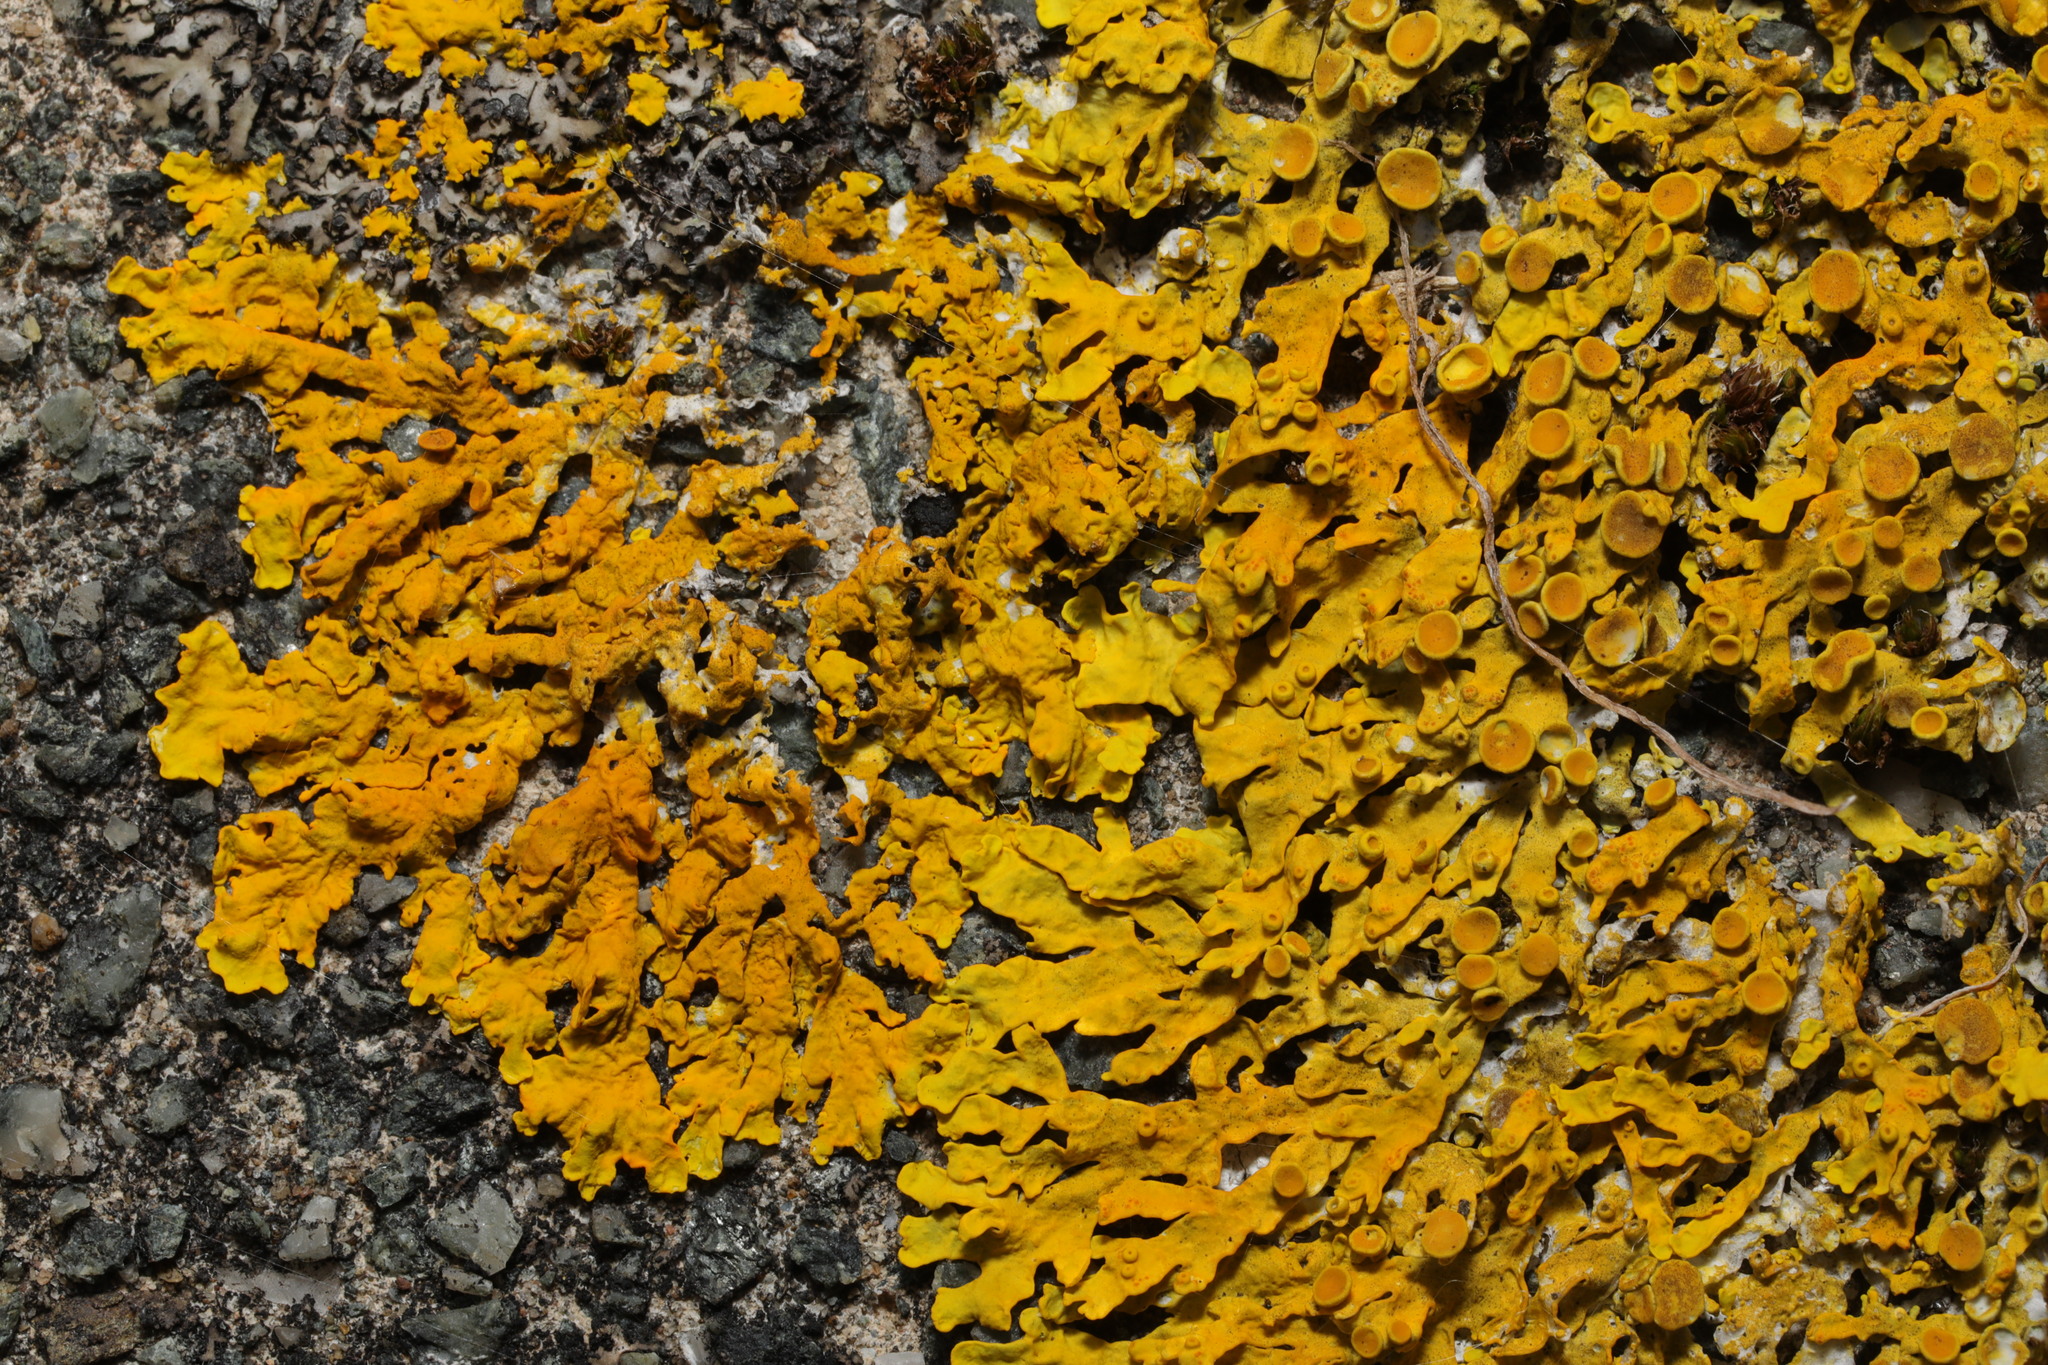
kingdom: Fungi
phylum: Ascomycota
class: Lecanoromycetes
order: Teloschistales
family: Teloschistaceae
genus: Xanthoria
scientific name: Xanthoria aureola
